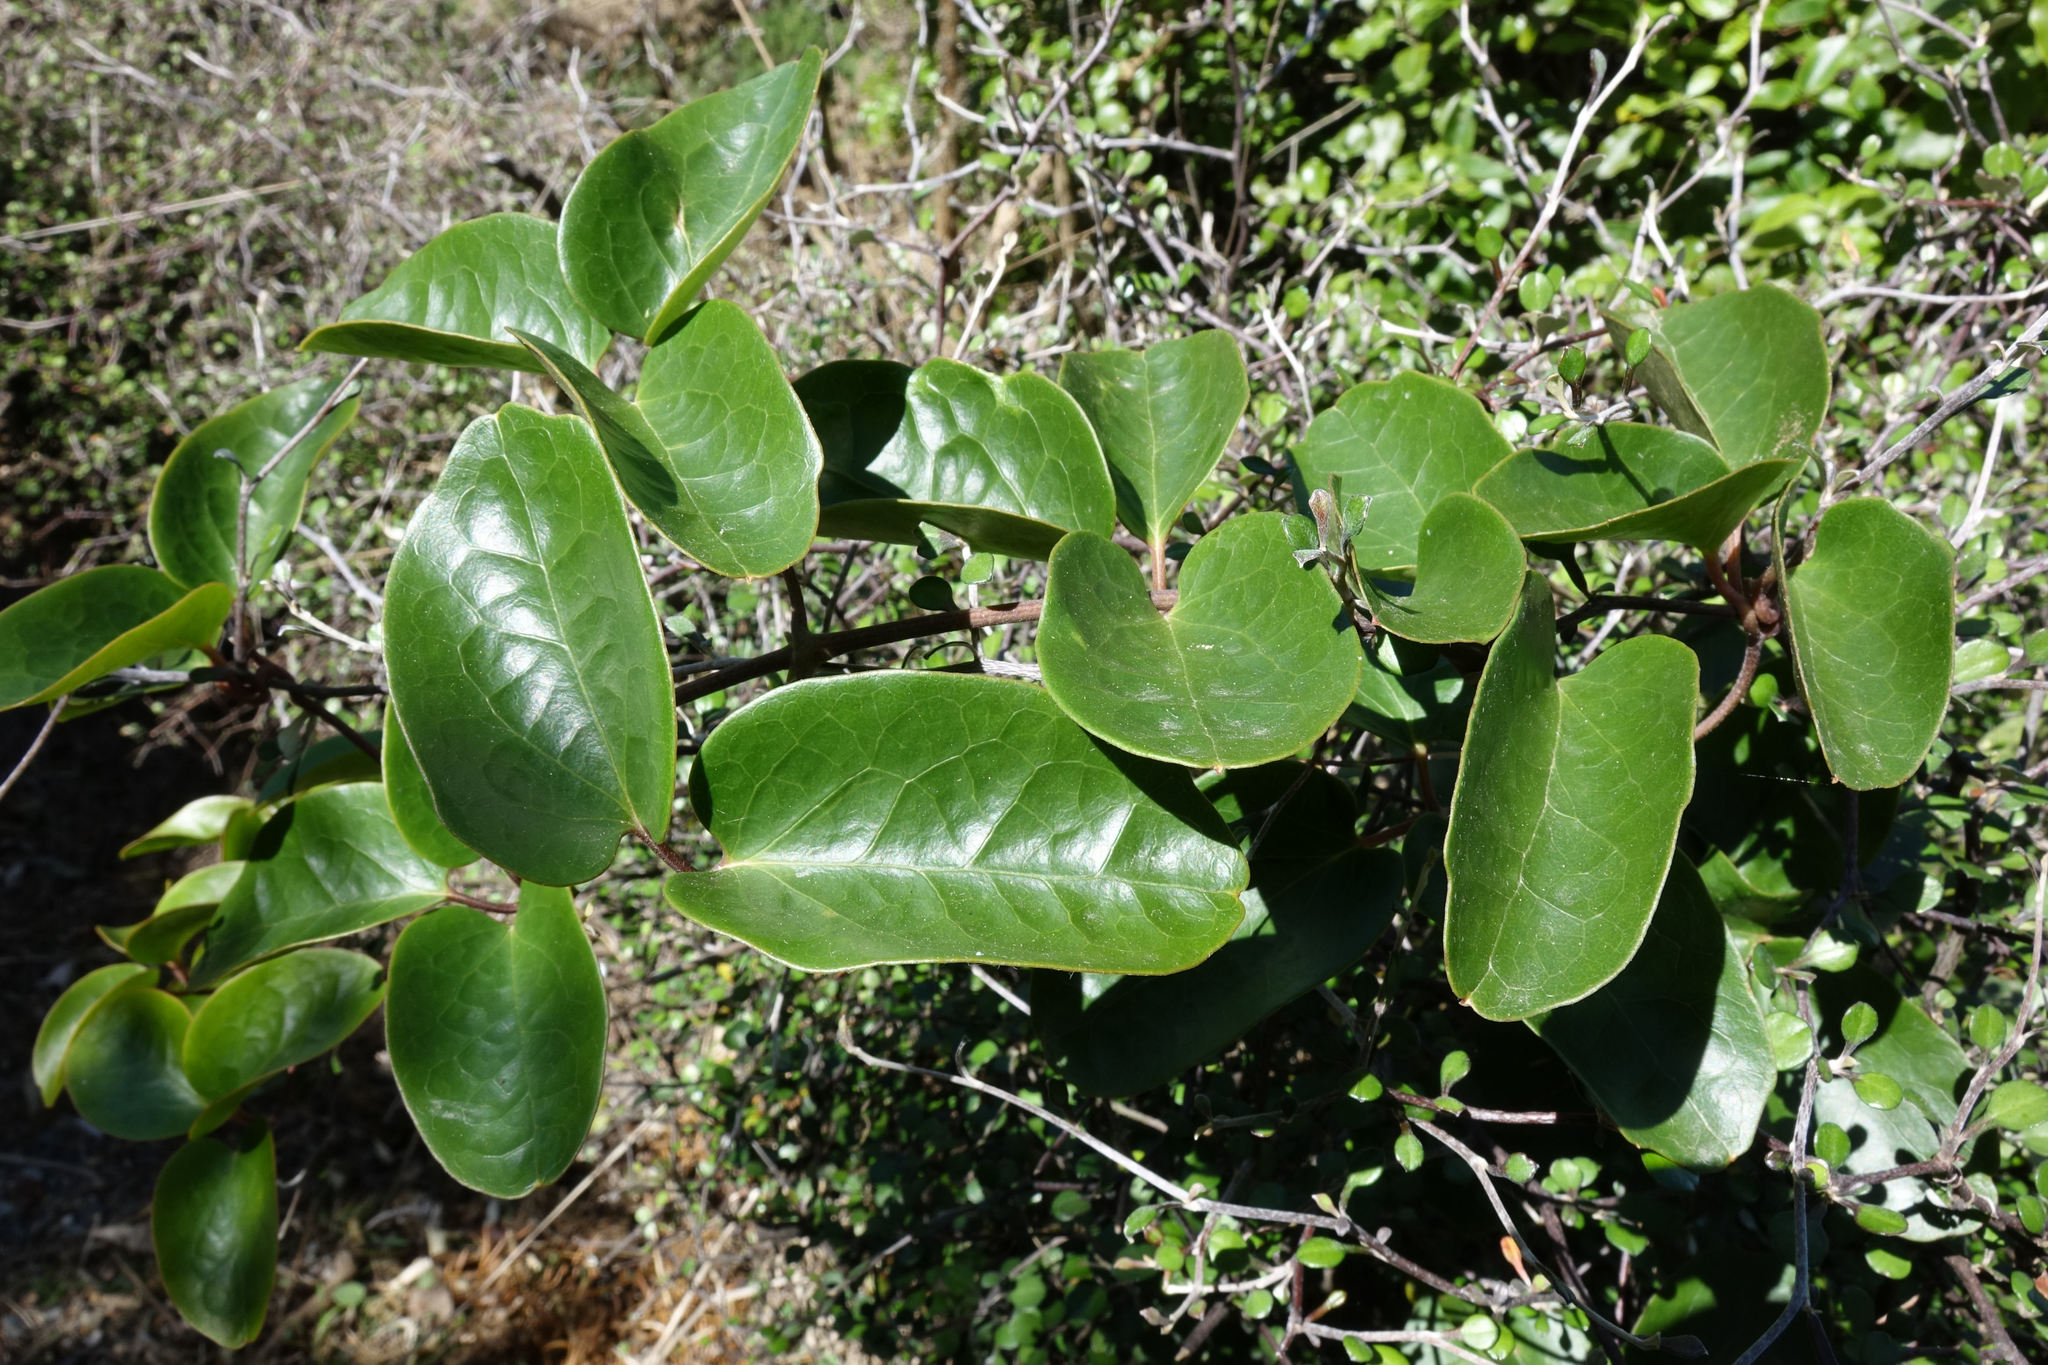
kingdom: Plantae
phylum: Tracheophyta
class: Magnoliopsida
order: Ranunculales
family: Ranunculaceae
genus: Clematis
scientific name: Clematis paniculata
